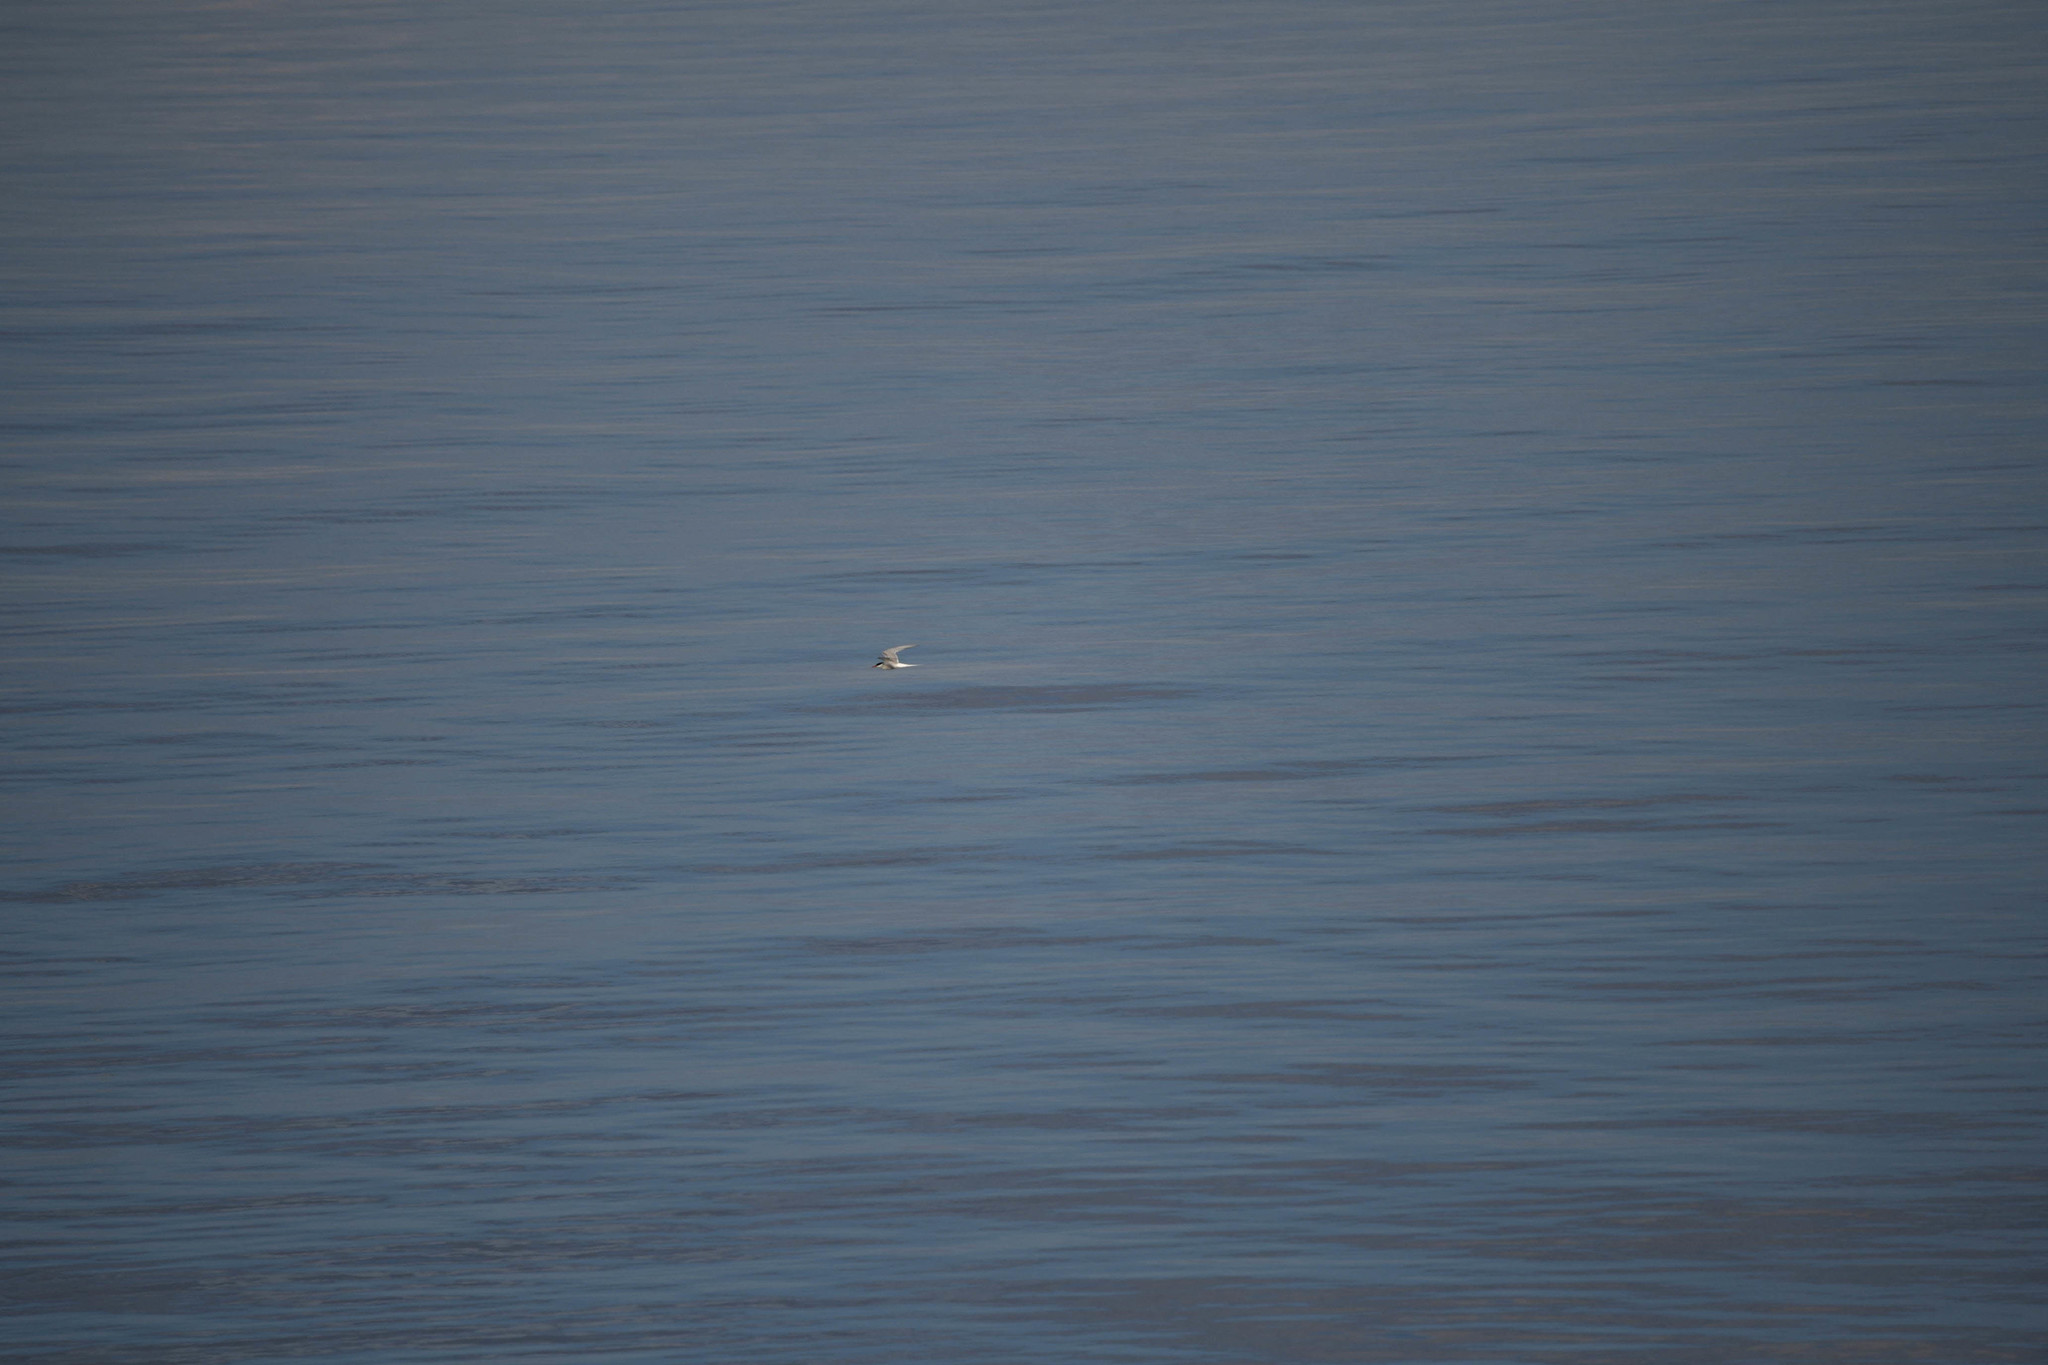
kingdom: Animalia
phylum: Chordata
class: Aves
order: Charadriiformes
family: Laridae
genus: Sterna
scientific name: Sterna paradisaea
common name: Arctic tern
